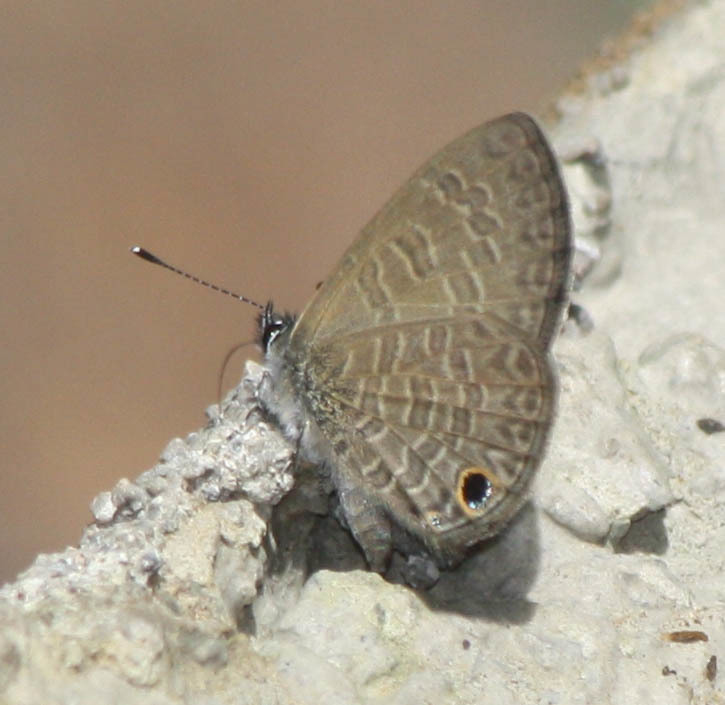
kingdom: Animalia
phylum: Arthropoda
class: Insecta
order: Lepidoptera
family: Lycaenidae
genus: Prosotas
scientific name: Prosotas dubiosa
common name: Tailless lineblue
